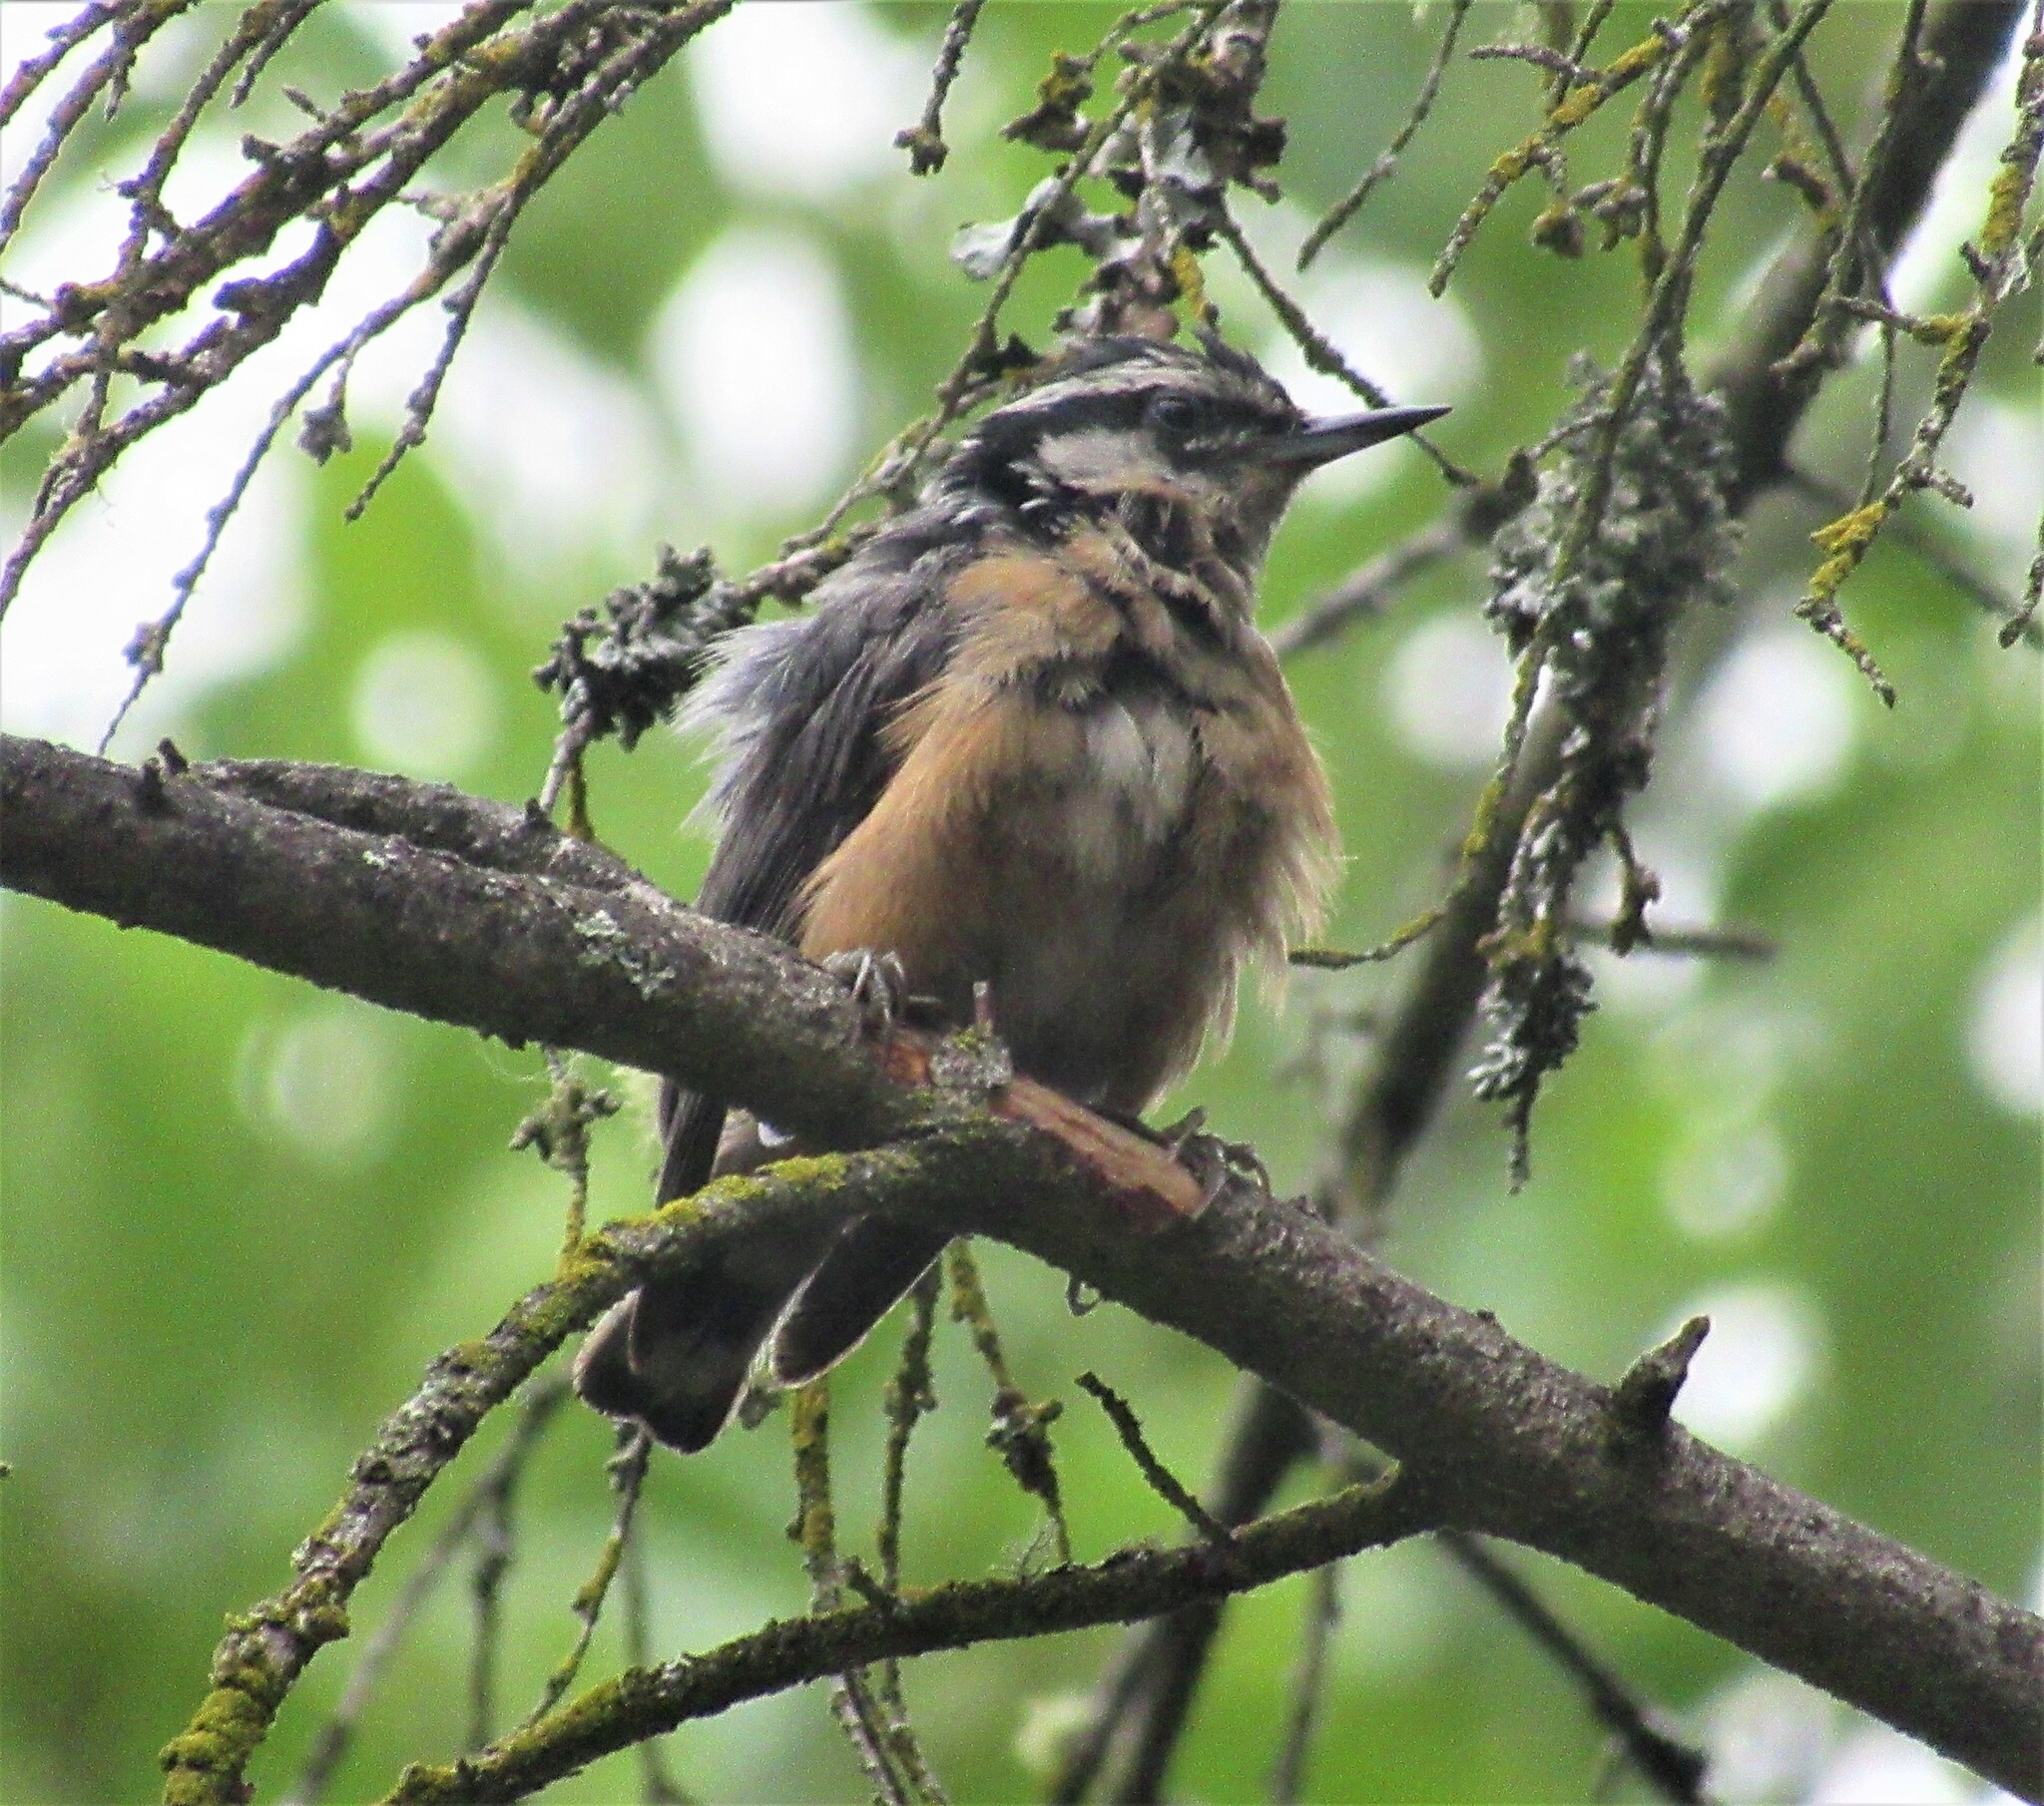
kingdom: Animalia
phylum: Chordata
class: Aves
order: Passeriformes
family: Sittidae
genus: Sitta
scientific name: Sitta canadensis
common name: Red-breasted nuthatch
